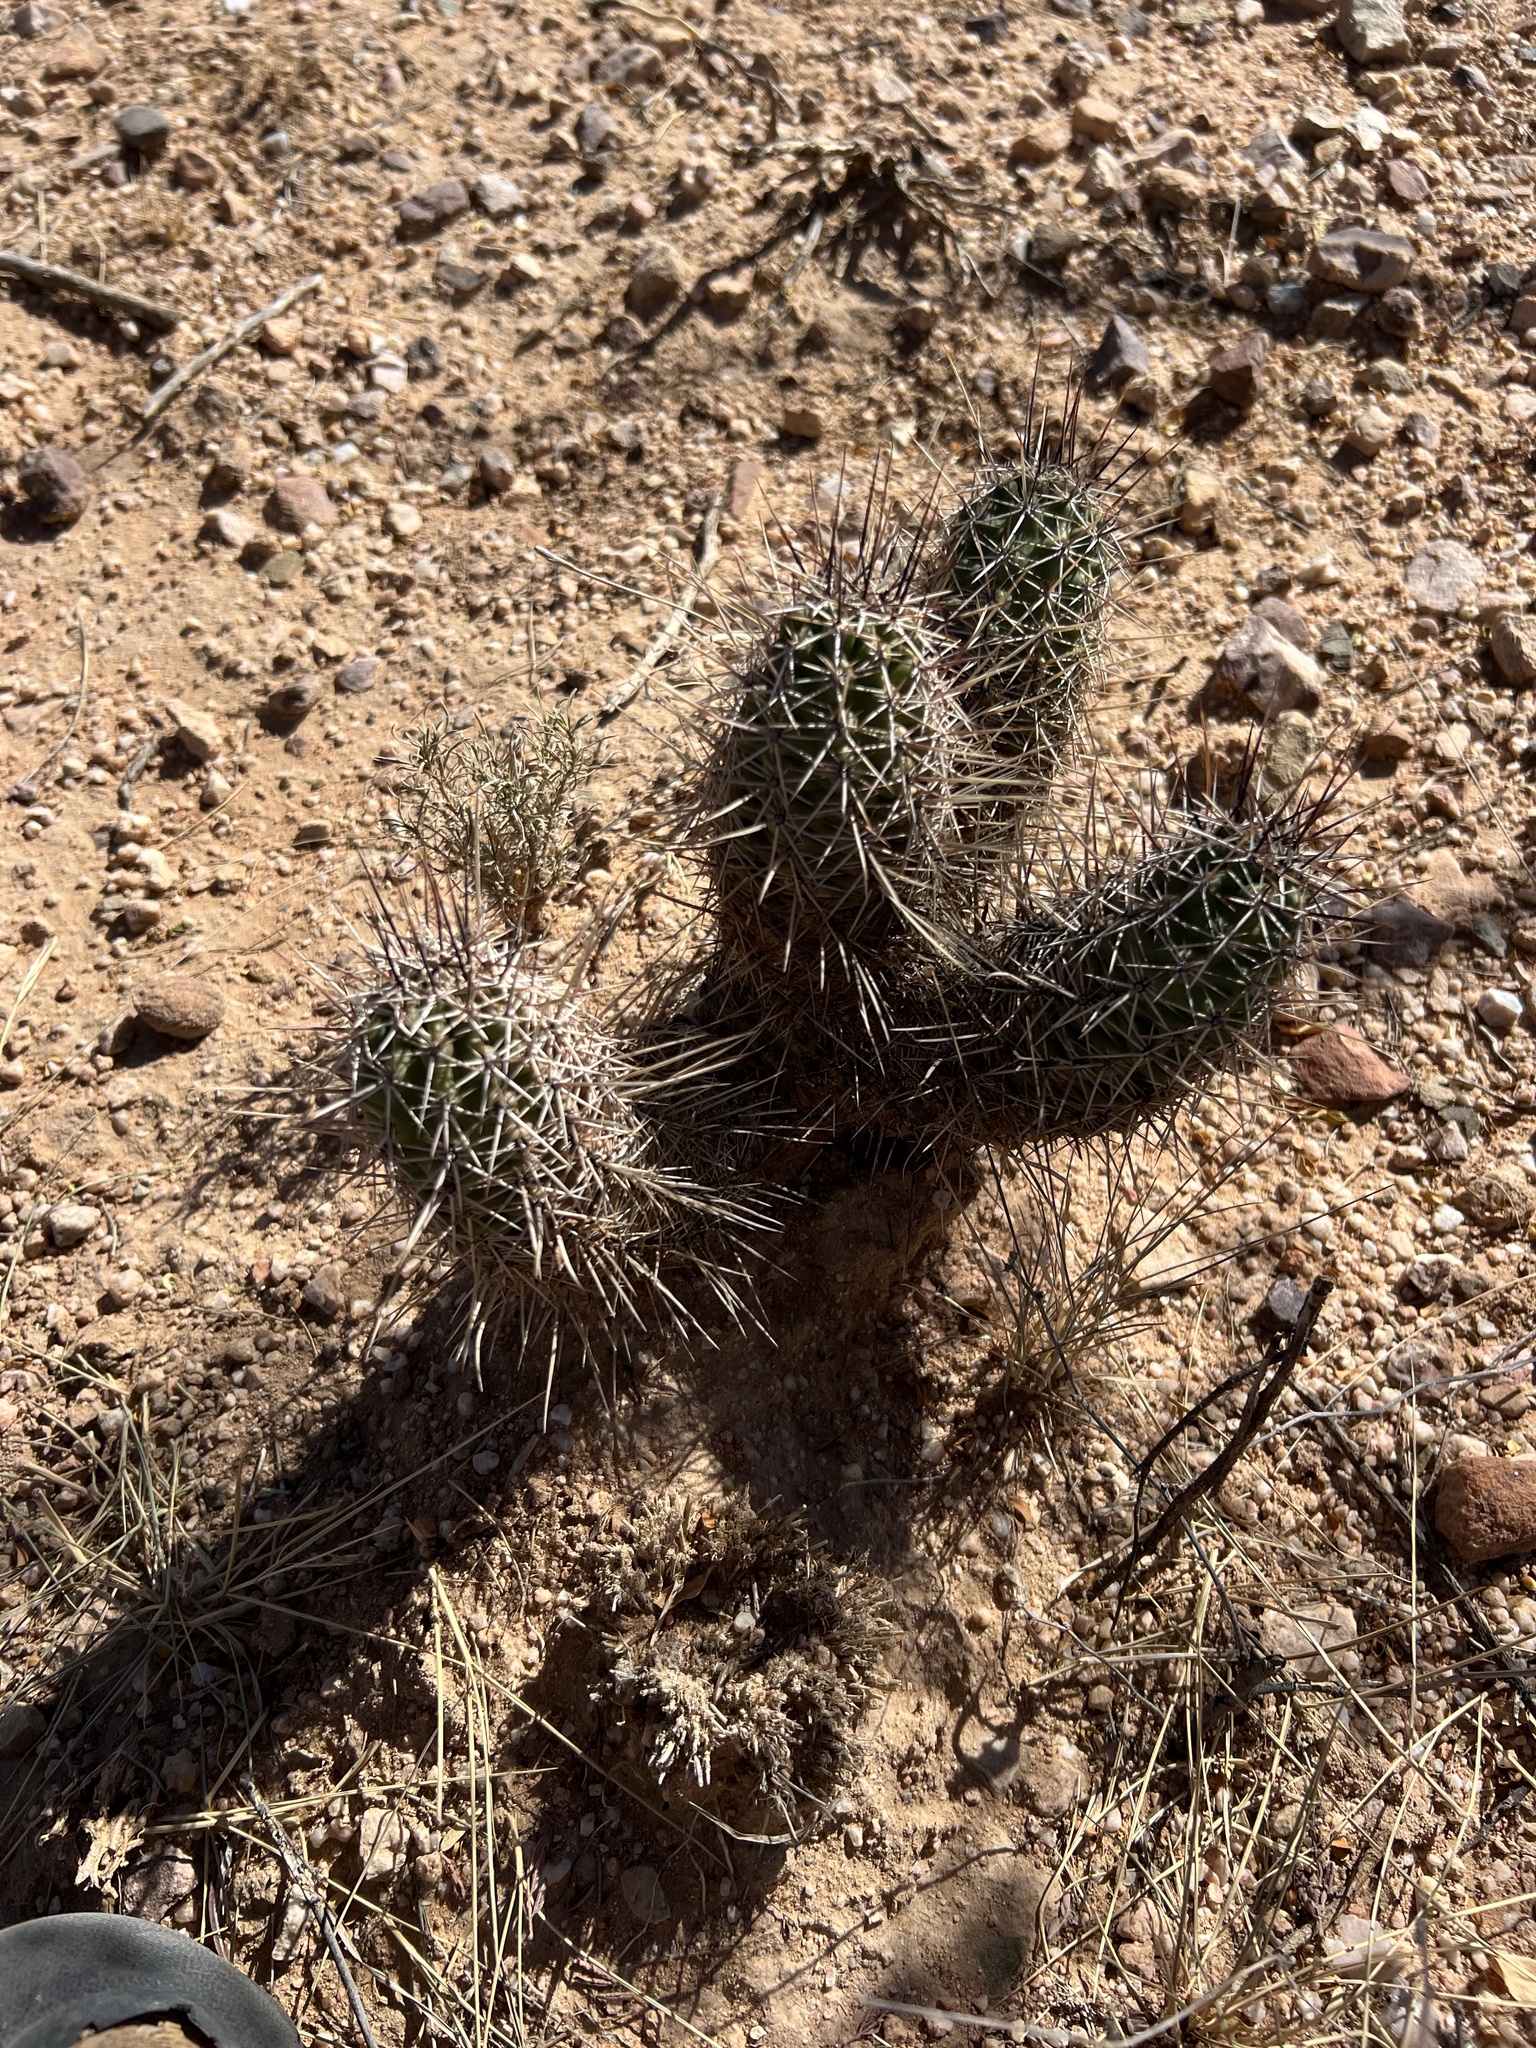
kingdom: Plantae
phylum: Tracheophyta
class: Magnoliopsida
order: Caryophyllales
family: Cactaceae
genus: Echinocereus
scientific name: Echinocereus fasciculatus
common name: Bundle hedgehog
